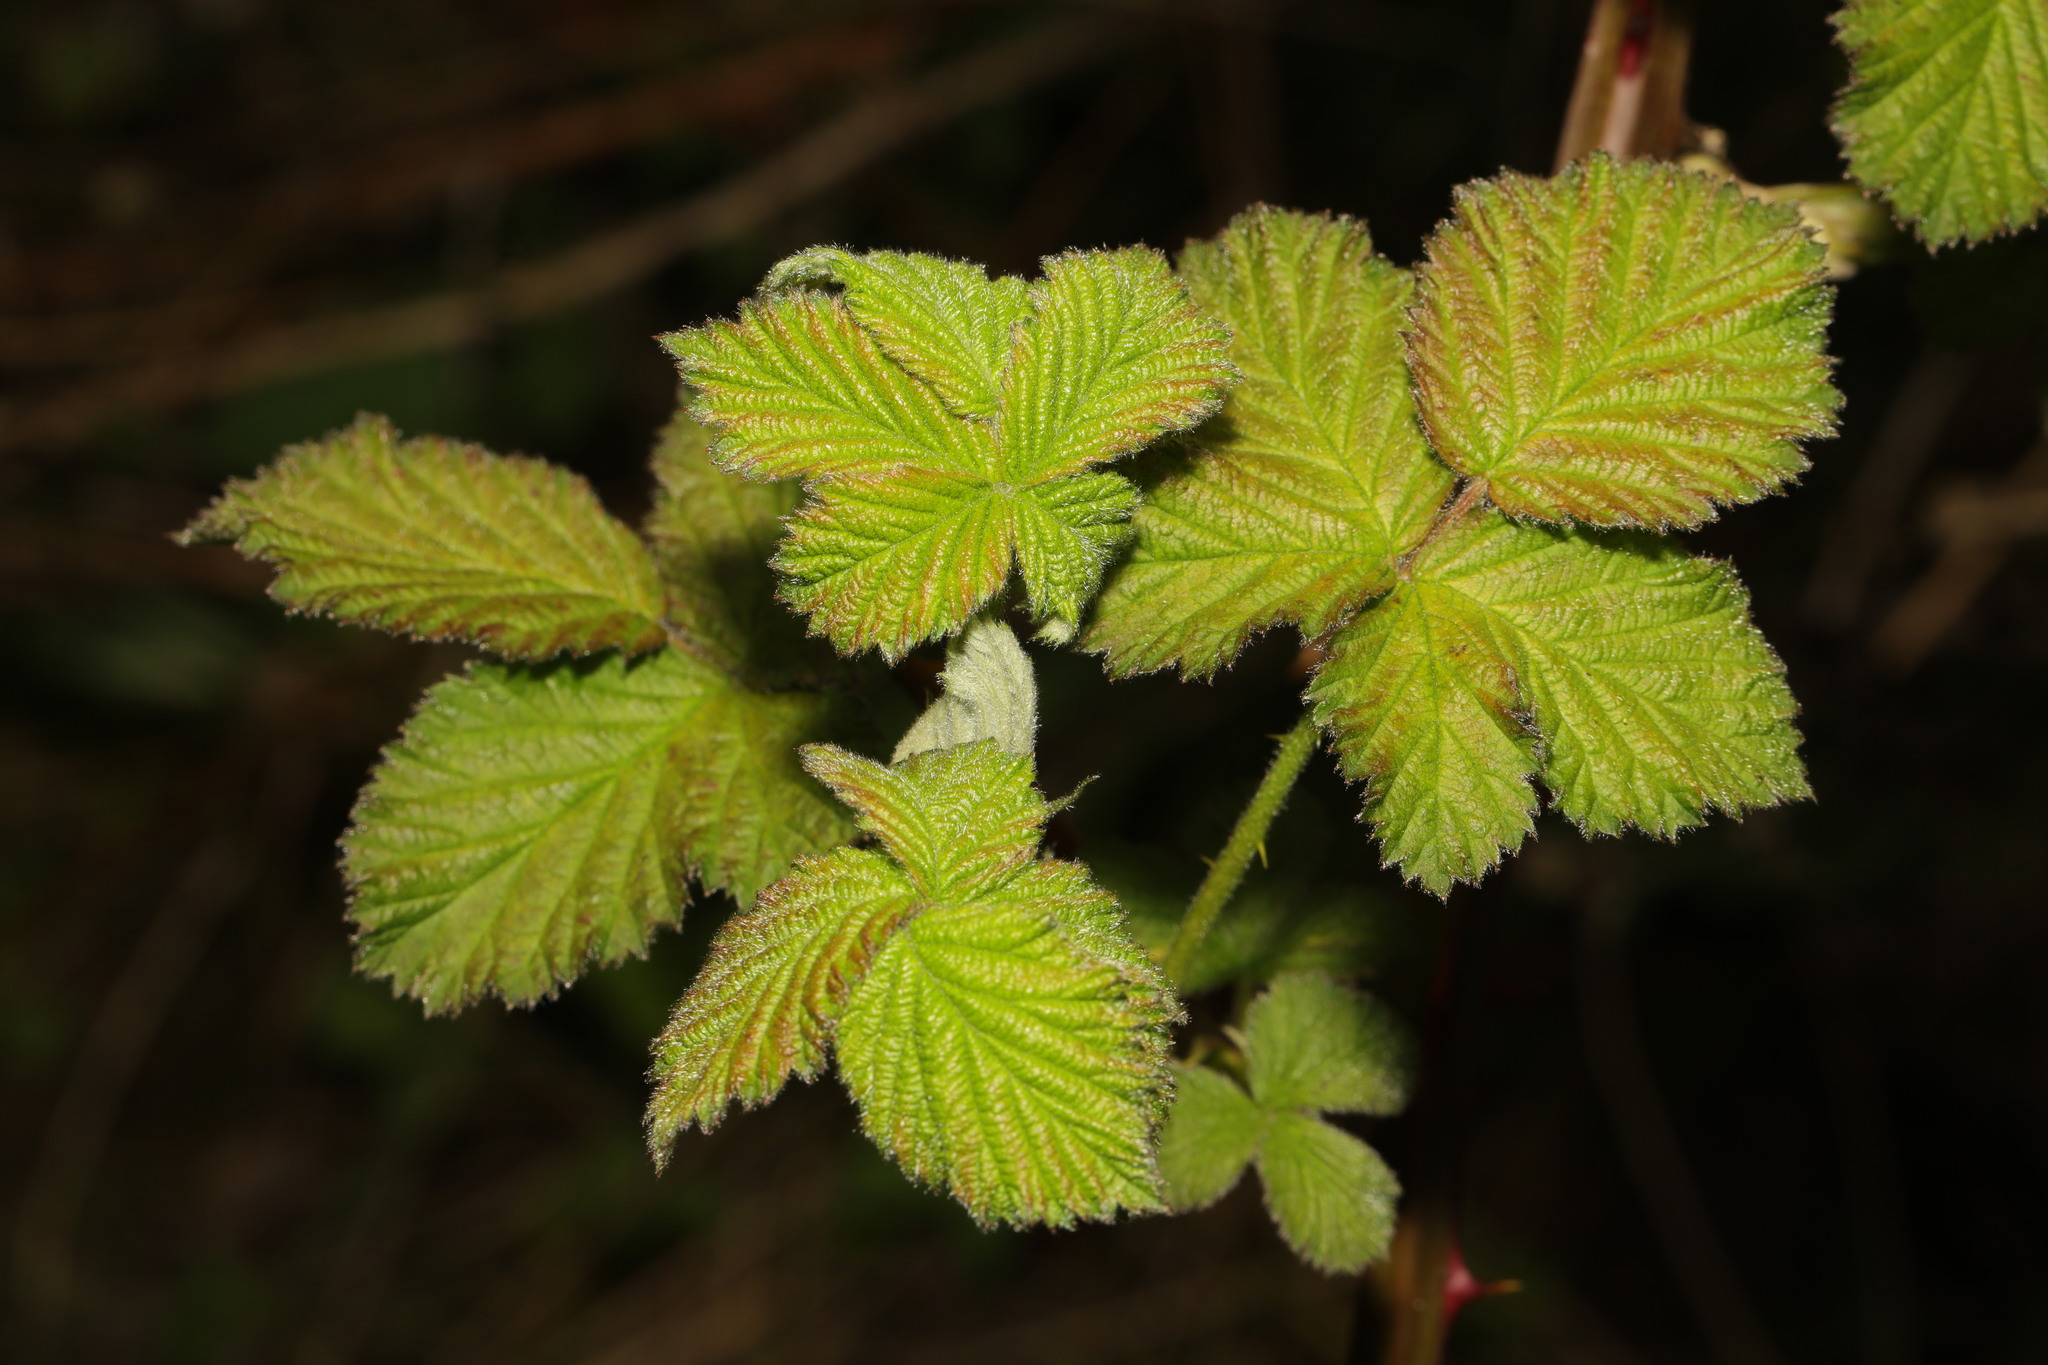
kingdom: Plantae
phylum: Tracheophyta
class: Magnoliopsida
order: Rosales
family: Rosaceae
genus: Rubus
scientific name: Rubus armeniacus
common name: Himalayan blackberry
